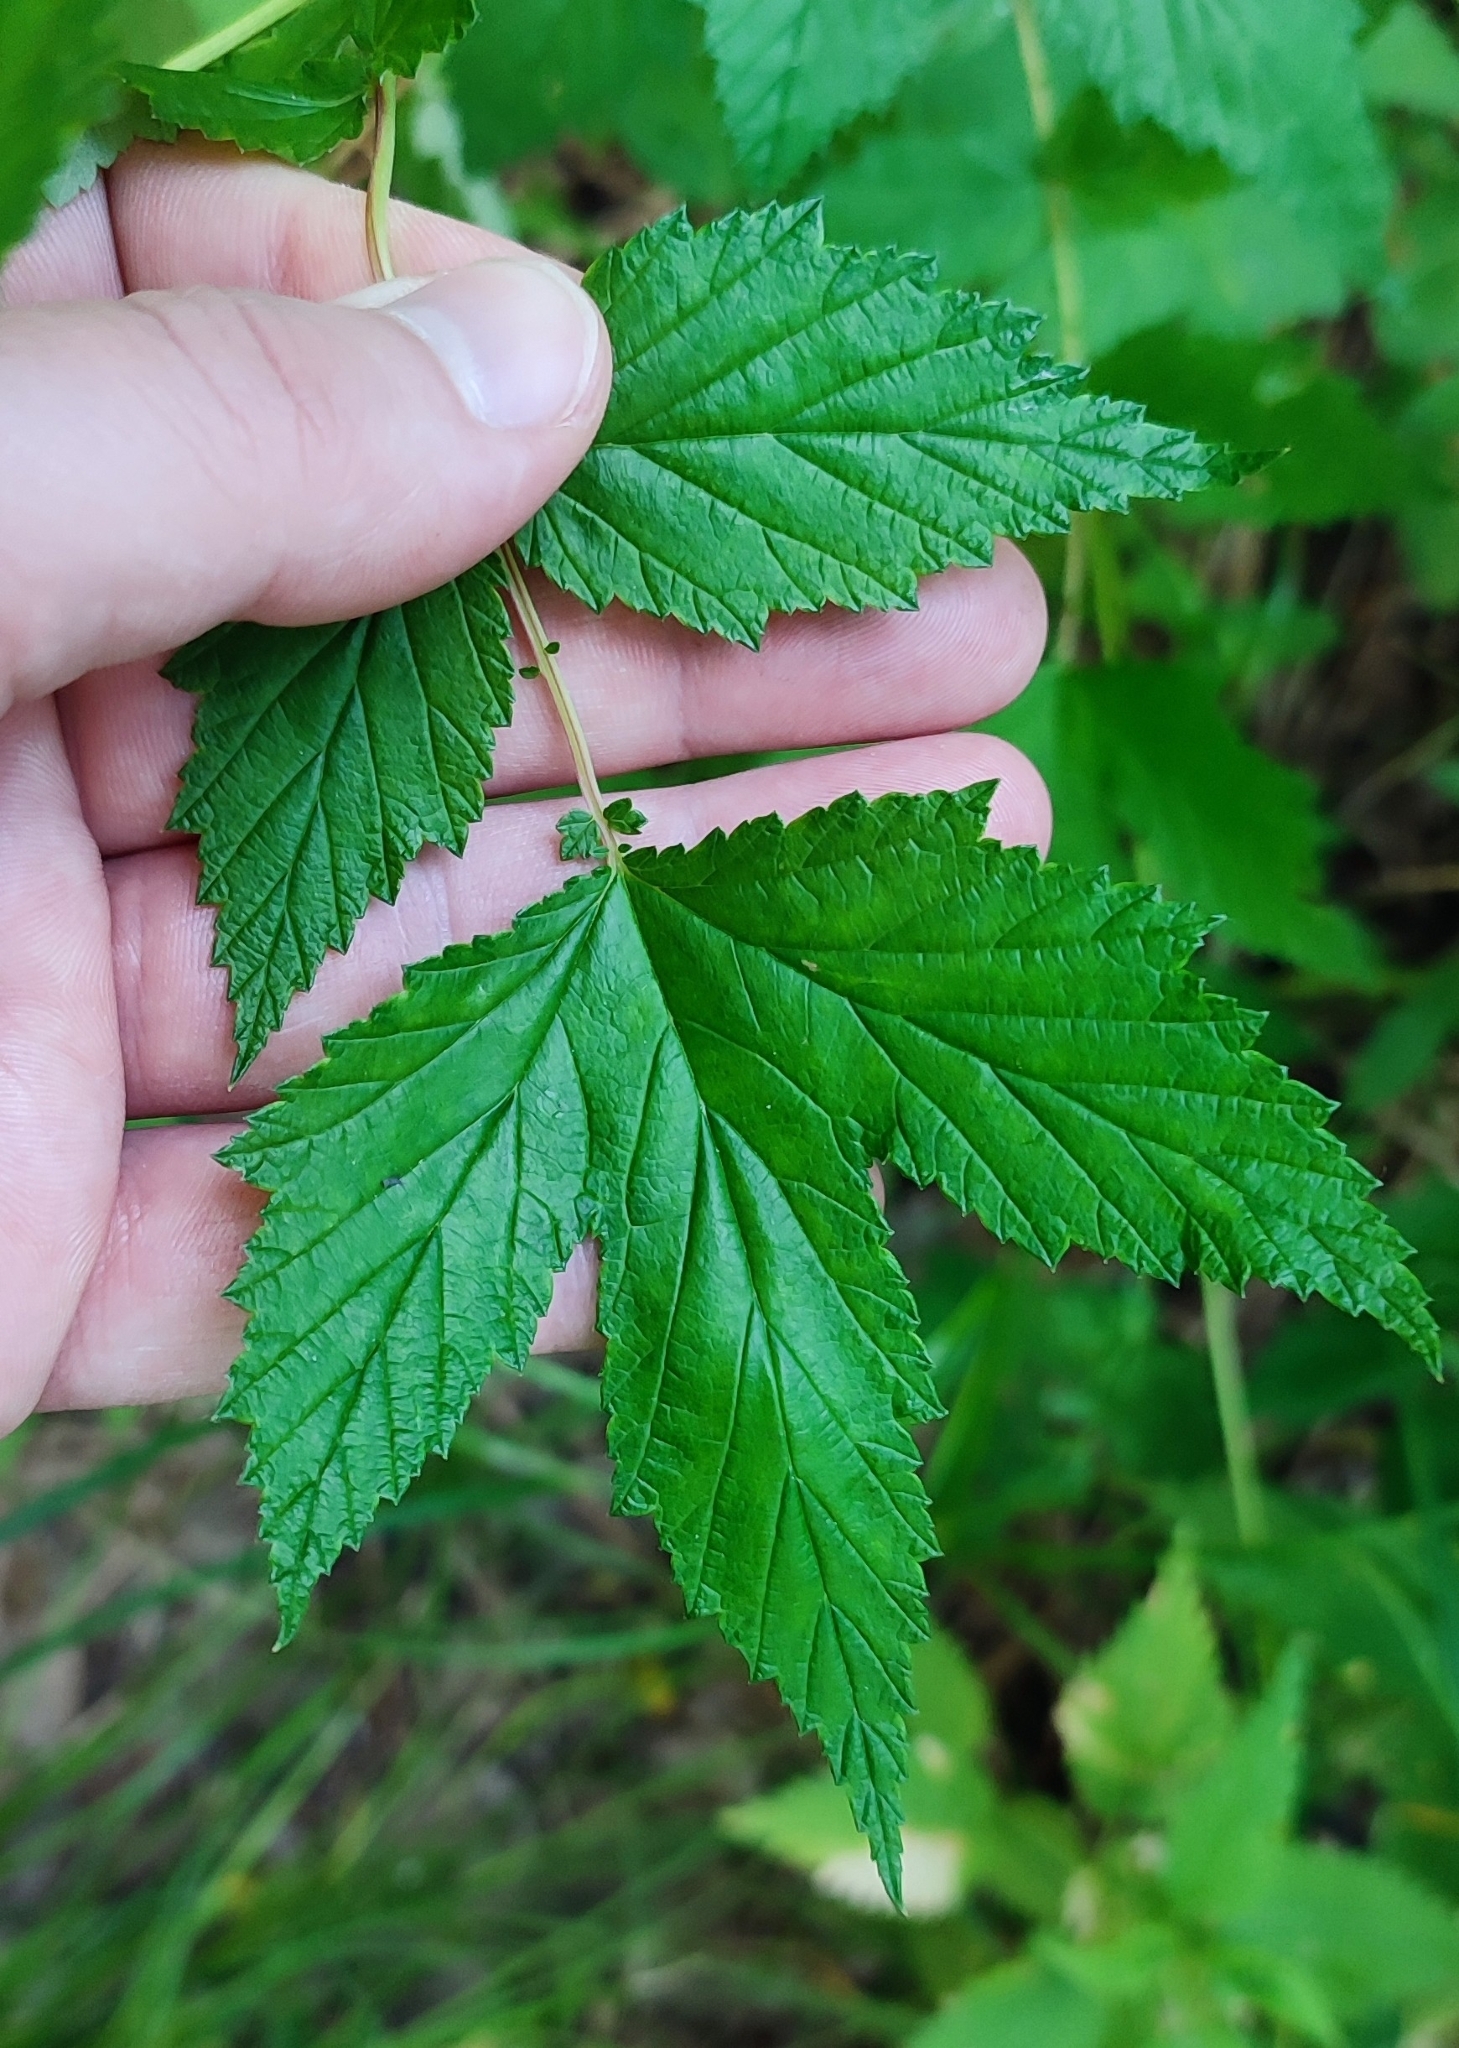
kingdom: Plantae
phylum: Tracheophyta
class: Magnoliopsida
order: Rosales
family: Rosaceae
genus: Filipendula
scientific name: Filipendula ulmaria
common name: Meadowsweet
